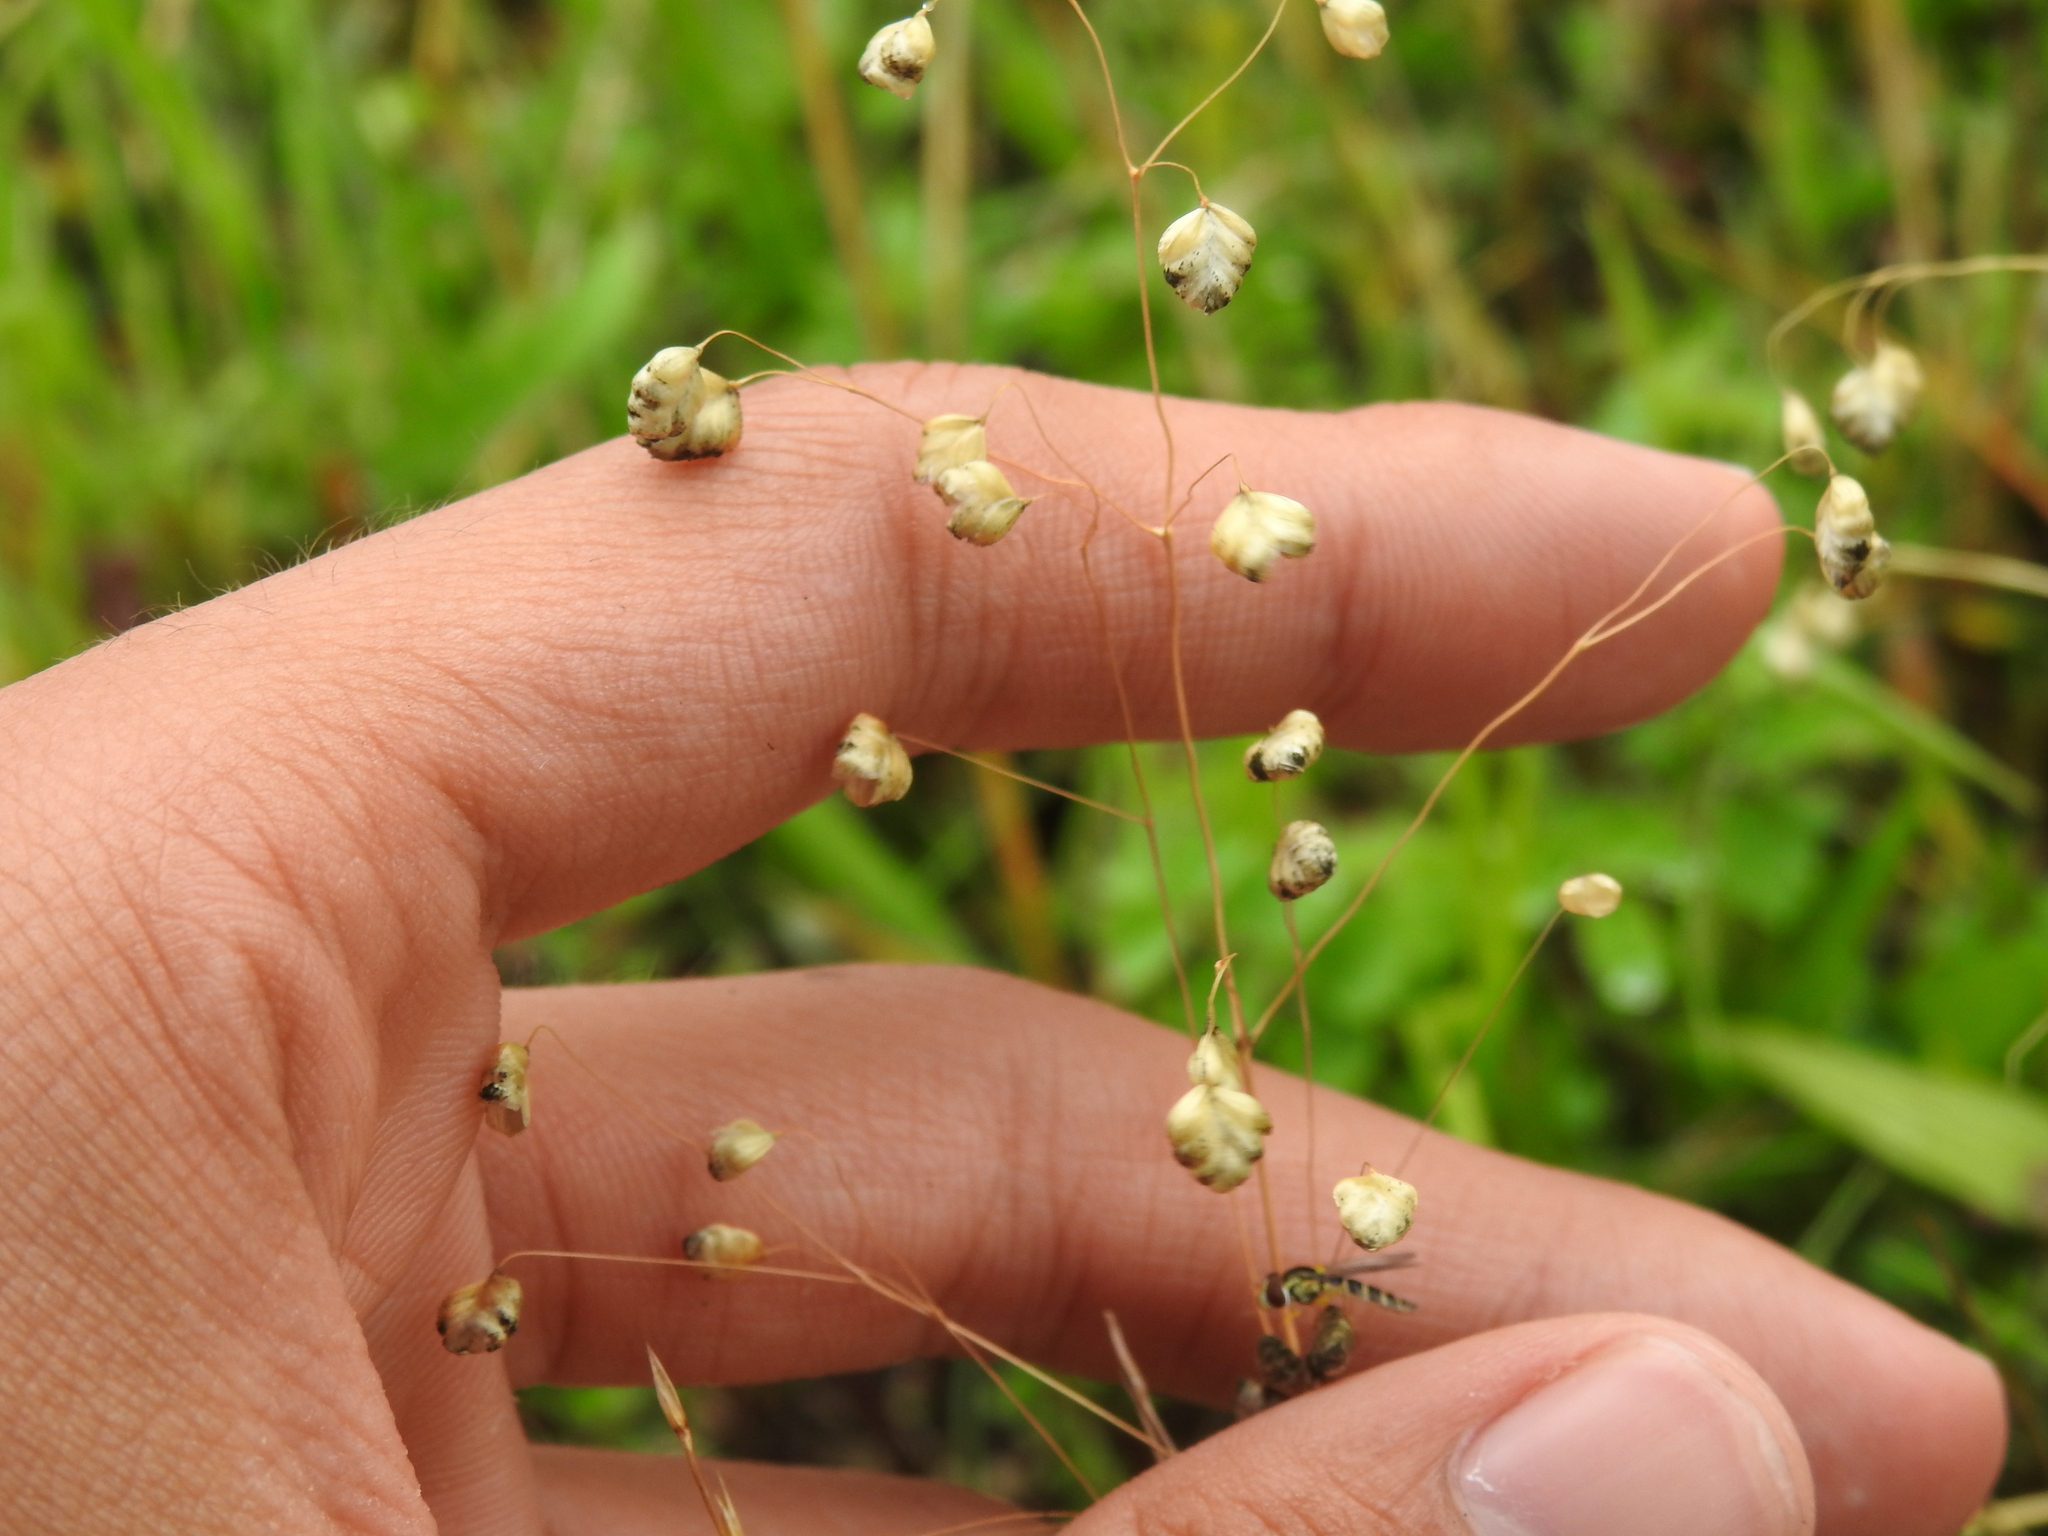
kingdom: Plantae
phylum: Tracheophyta
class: Liliopsida
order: Poales
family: Poaceae
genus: Briza
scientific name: Briza media
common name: Quaking grass
